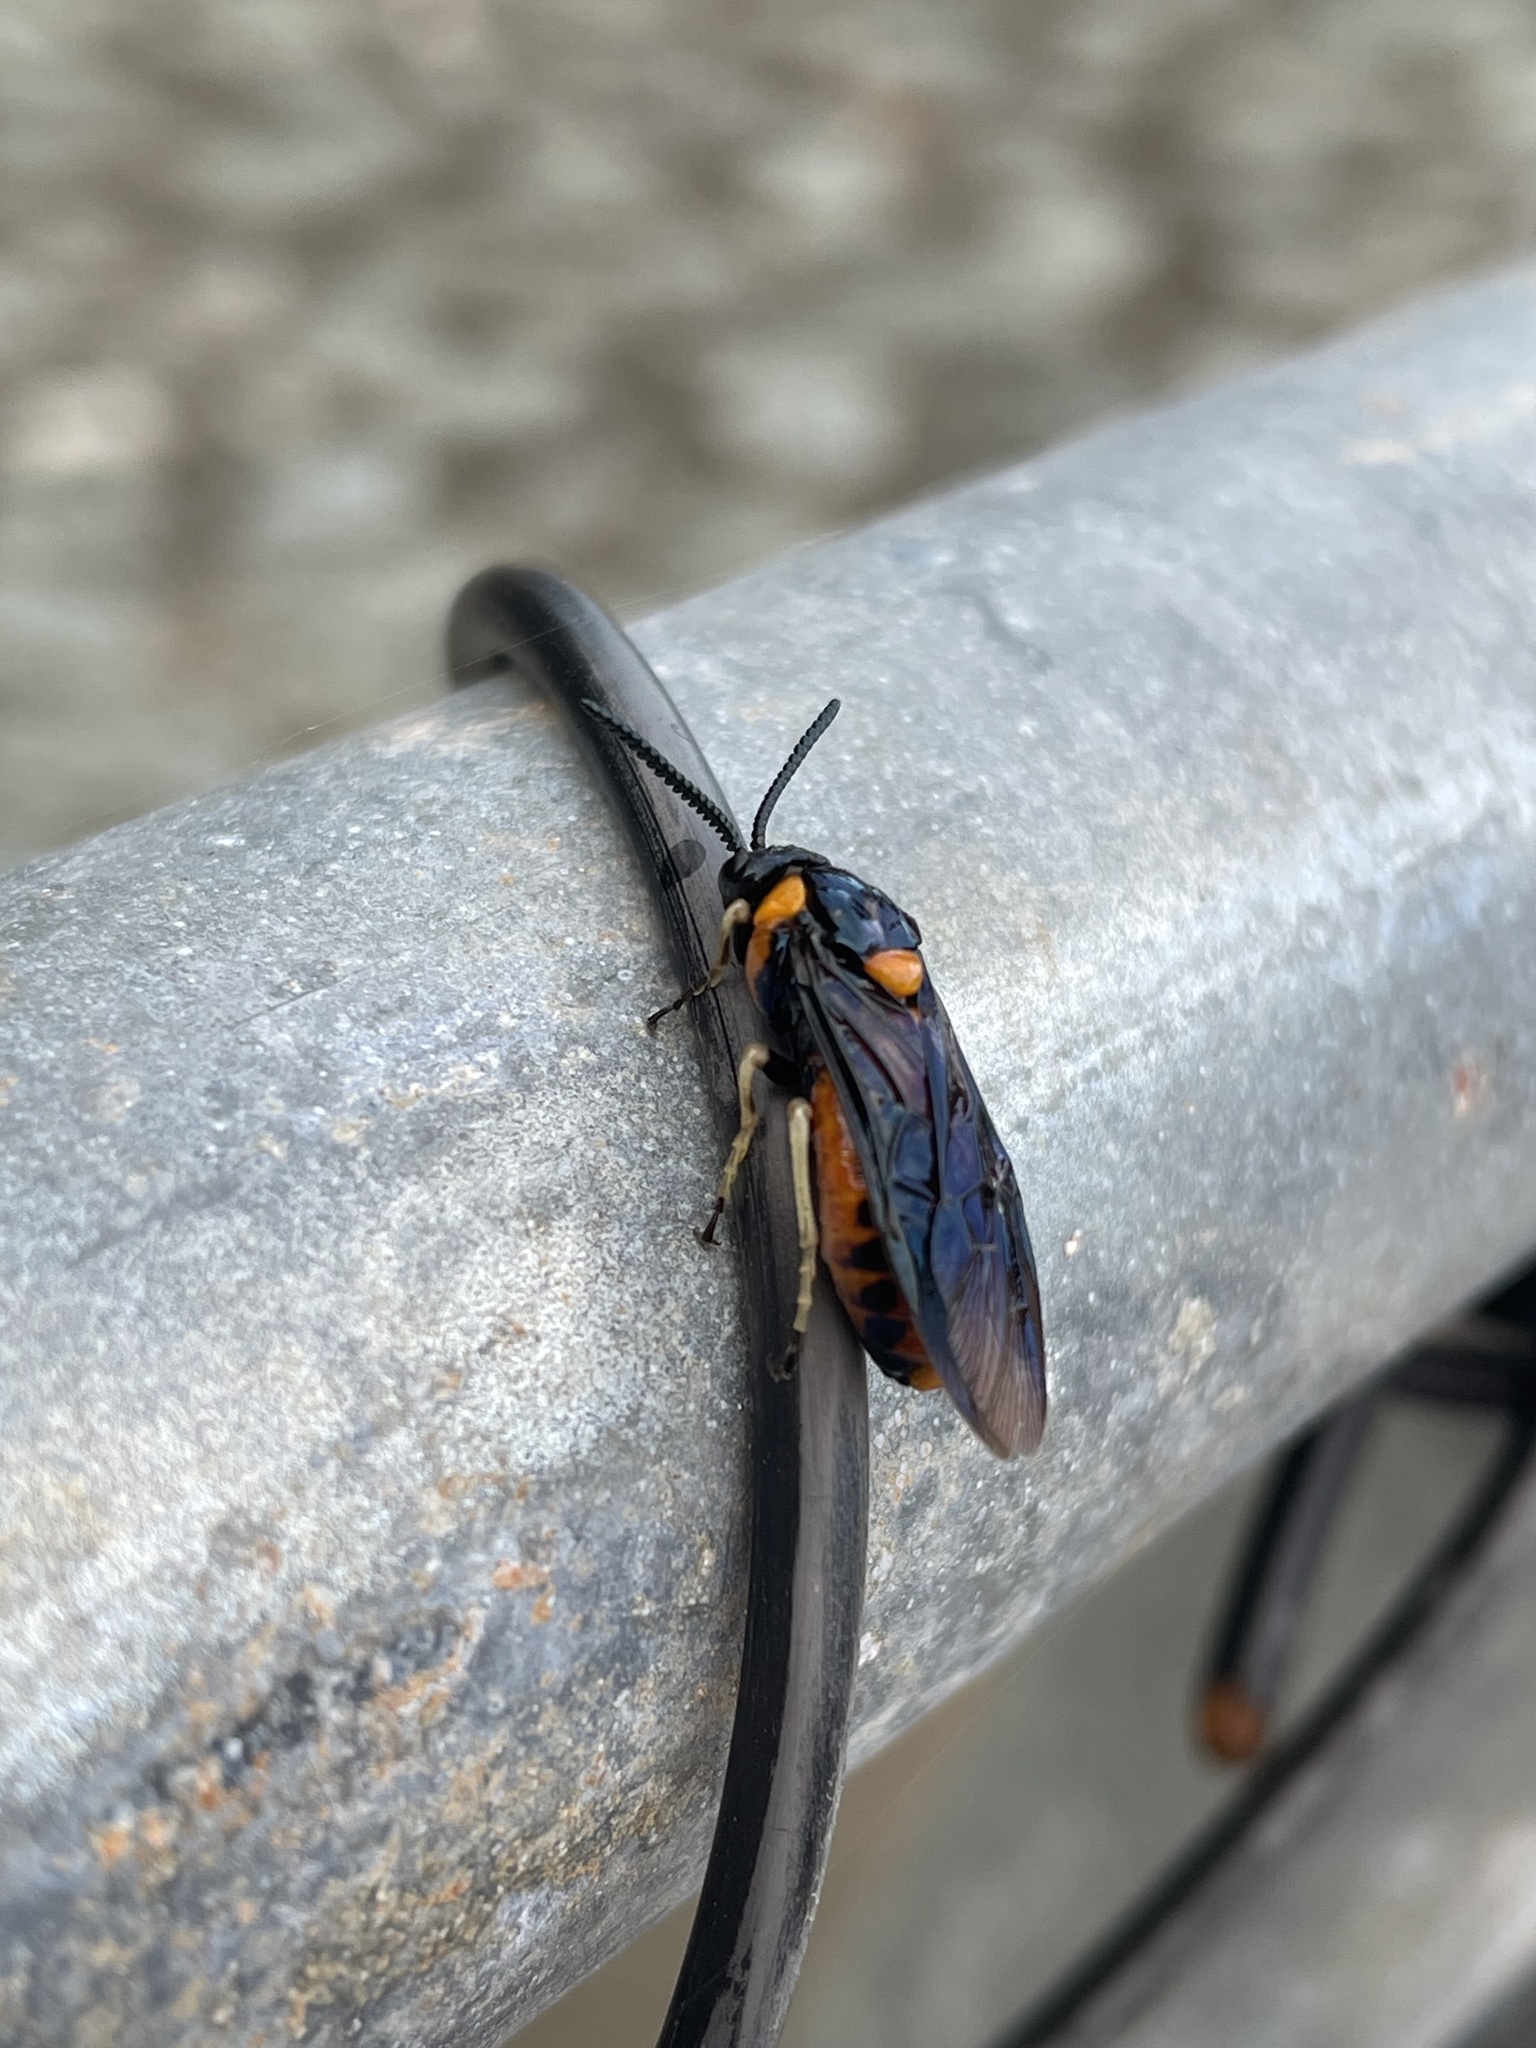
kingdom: Animalia
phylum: Arthropoda
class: Insecta
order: Hymenoptera
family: Pergidae
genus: Lophyrotoma
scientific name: Lophyrotoma interrupta
